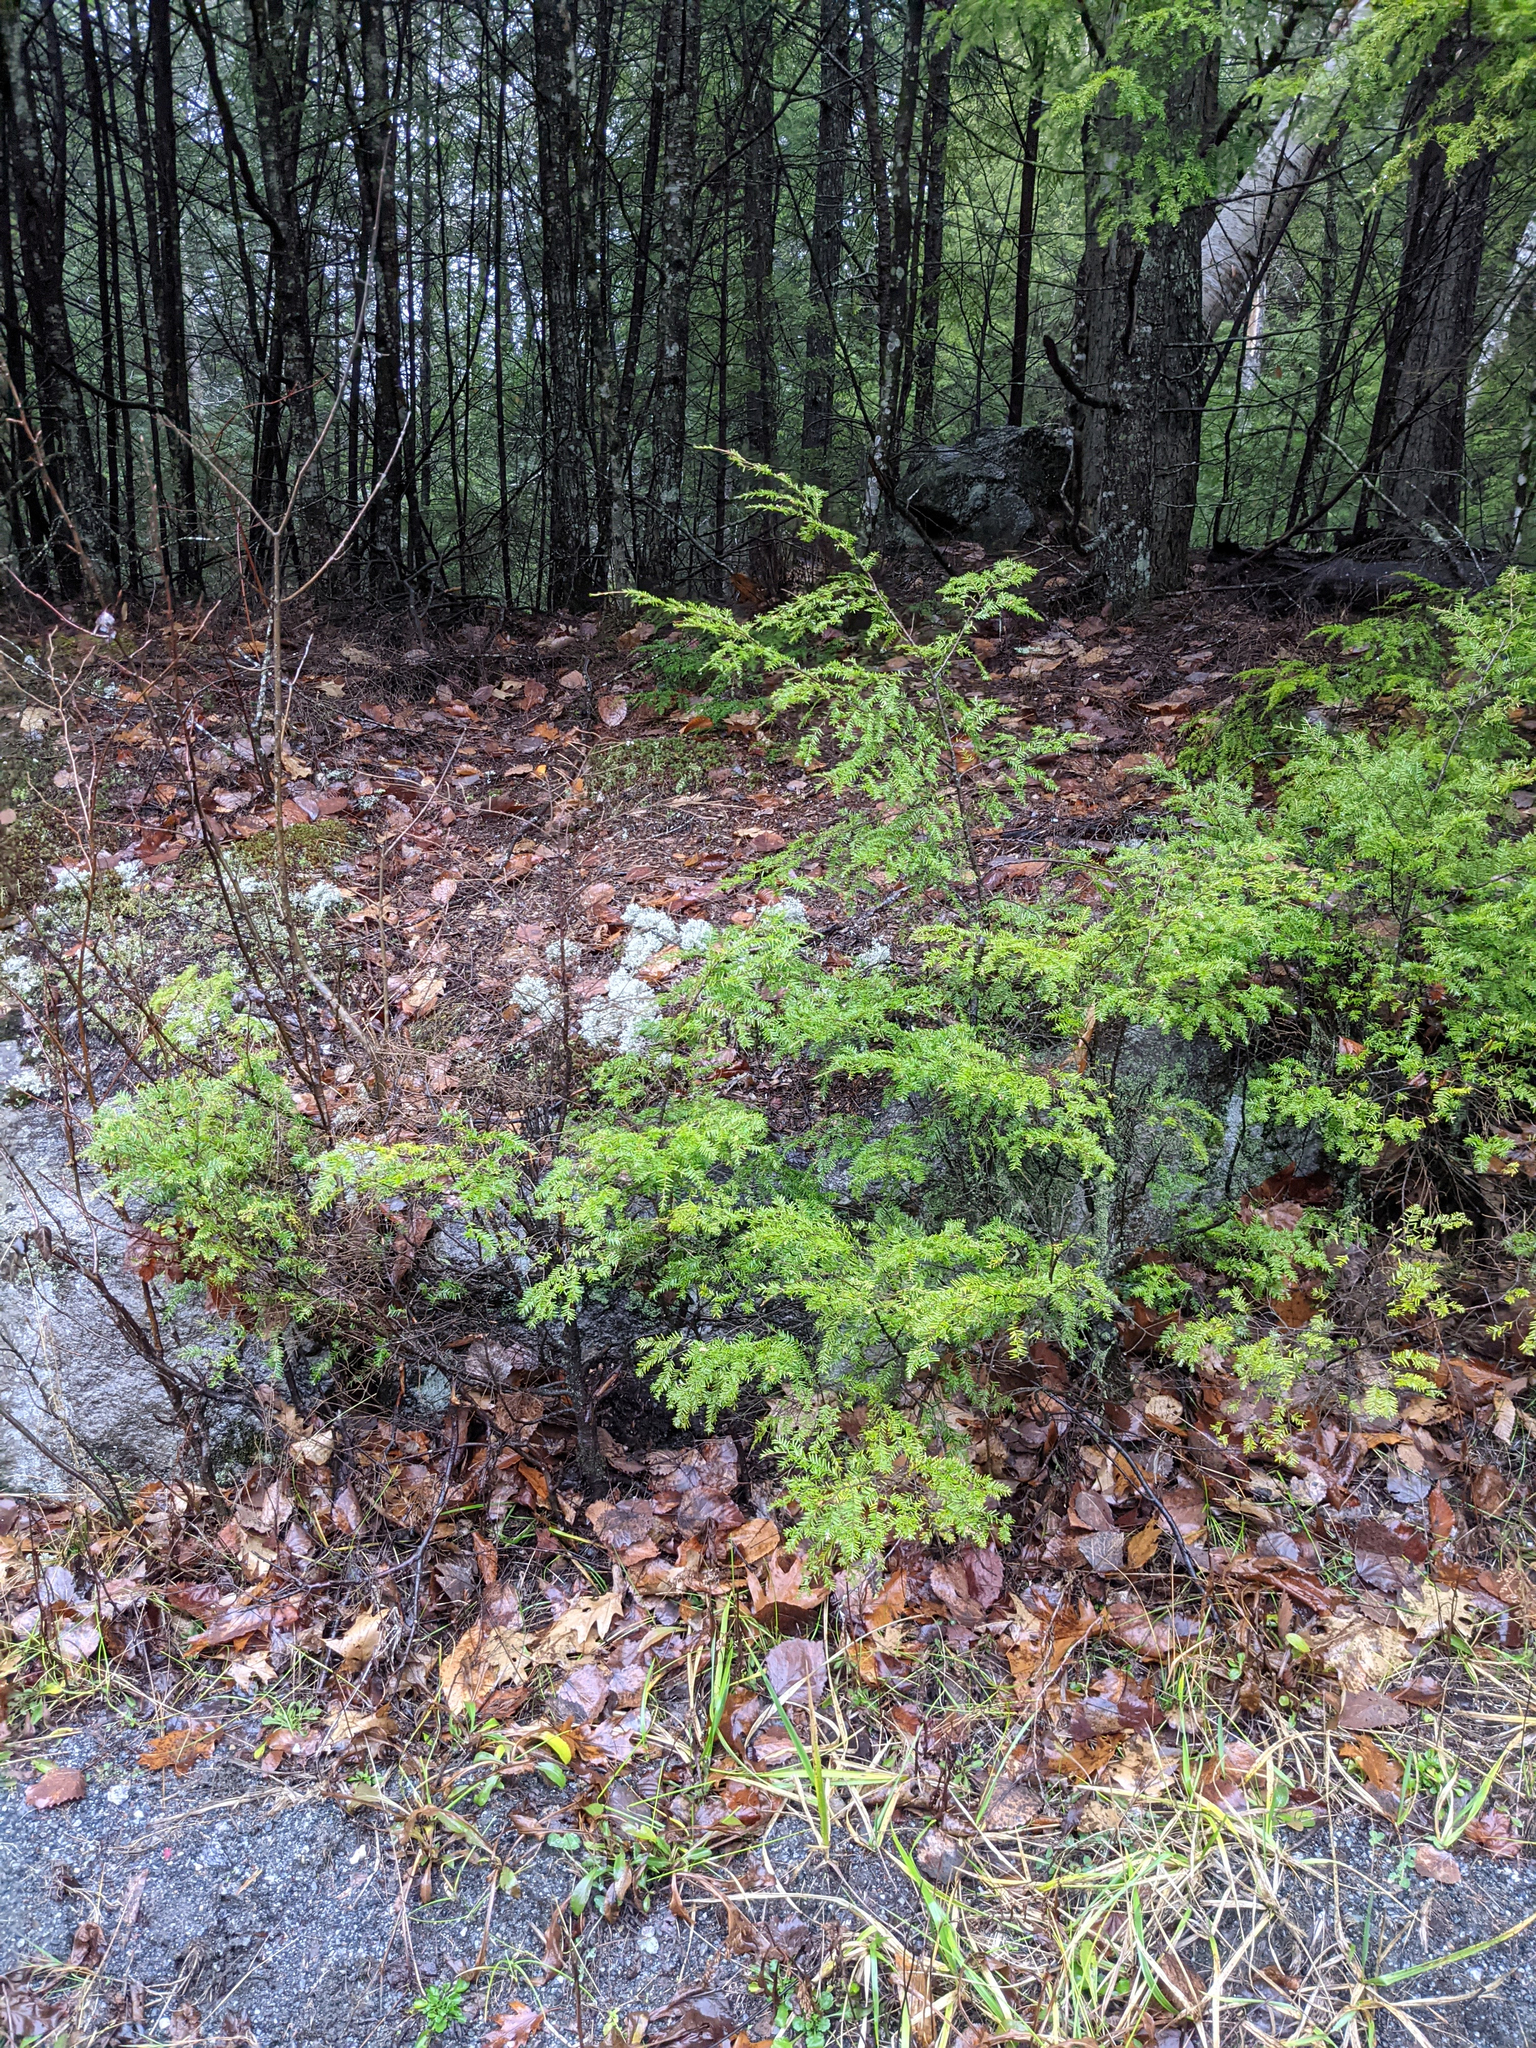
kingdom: Plantae
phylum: Tracheophyta
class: Pinopsida
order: Pinales
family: Pinaceae
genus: Tsuga
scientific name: Tsuga canadensis
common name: Eastern hemlock
